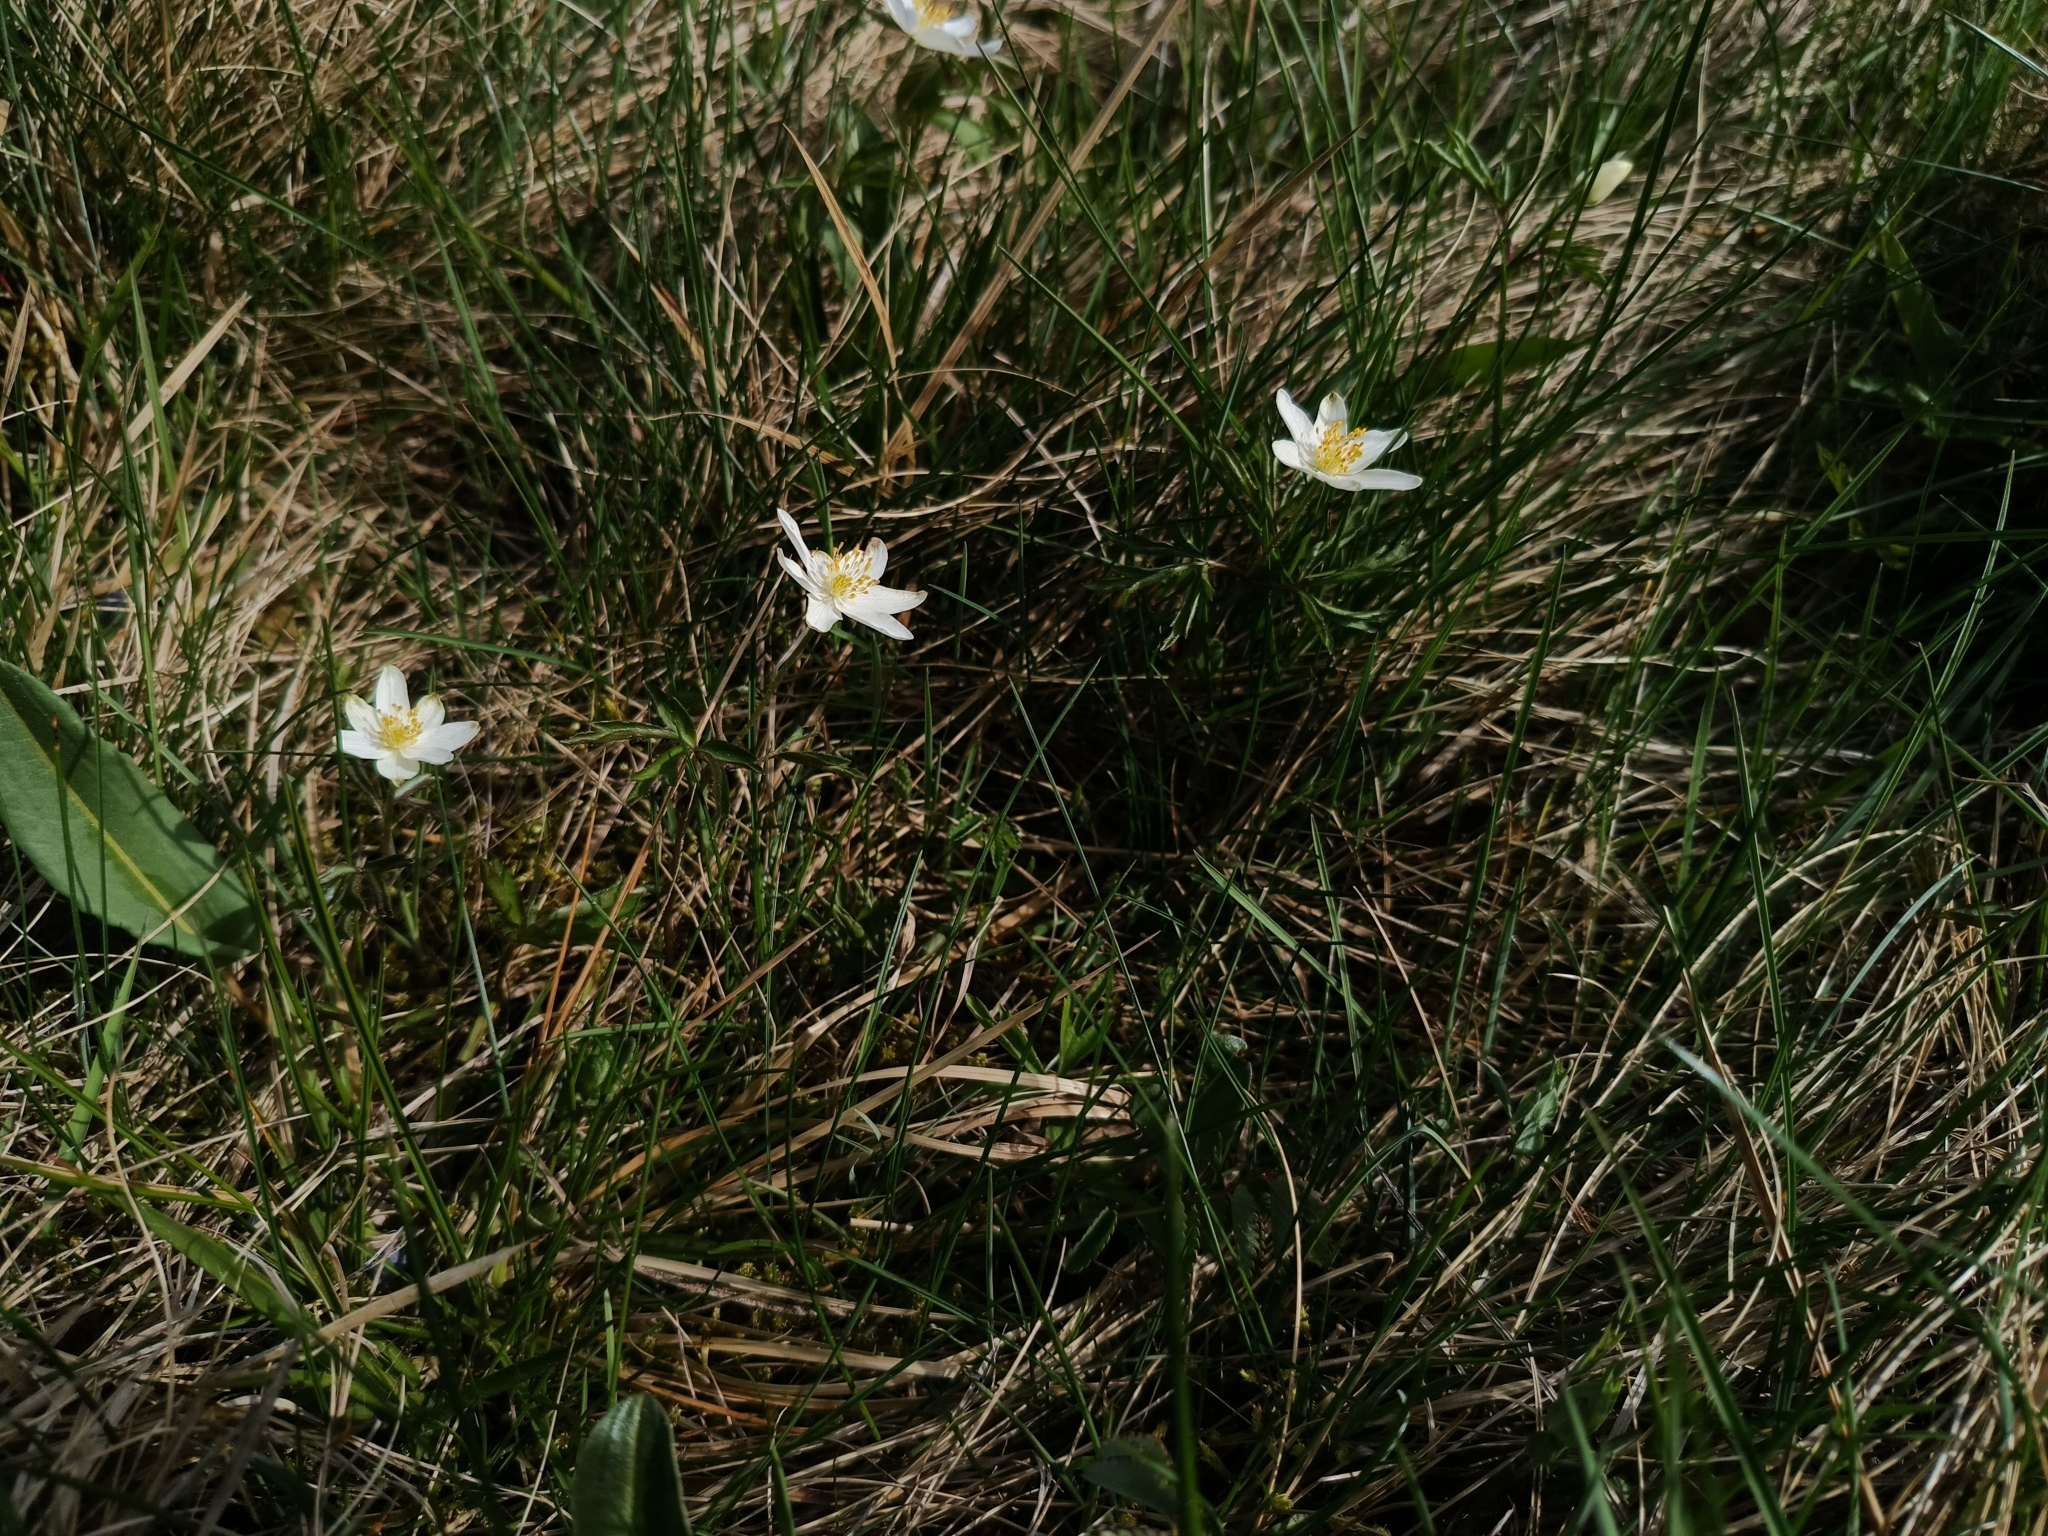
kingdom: Plantae
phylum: Tracheophyta
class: Magnoliopsida
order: Ranunculales
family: Ranunculaceae
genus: Anemone
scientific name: Anemone nemorosa
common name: Wood anemone
